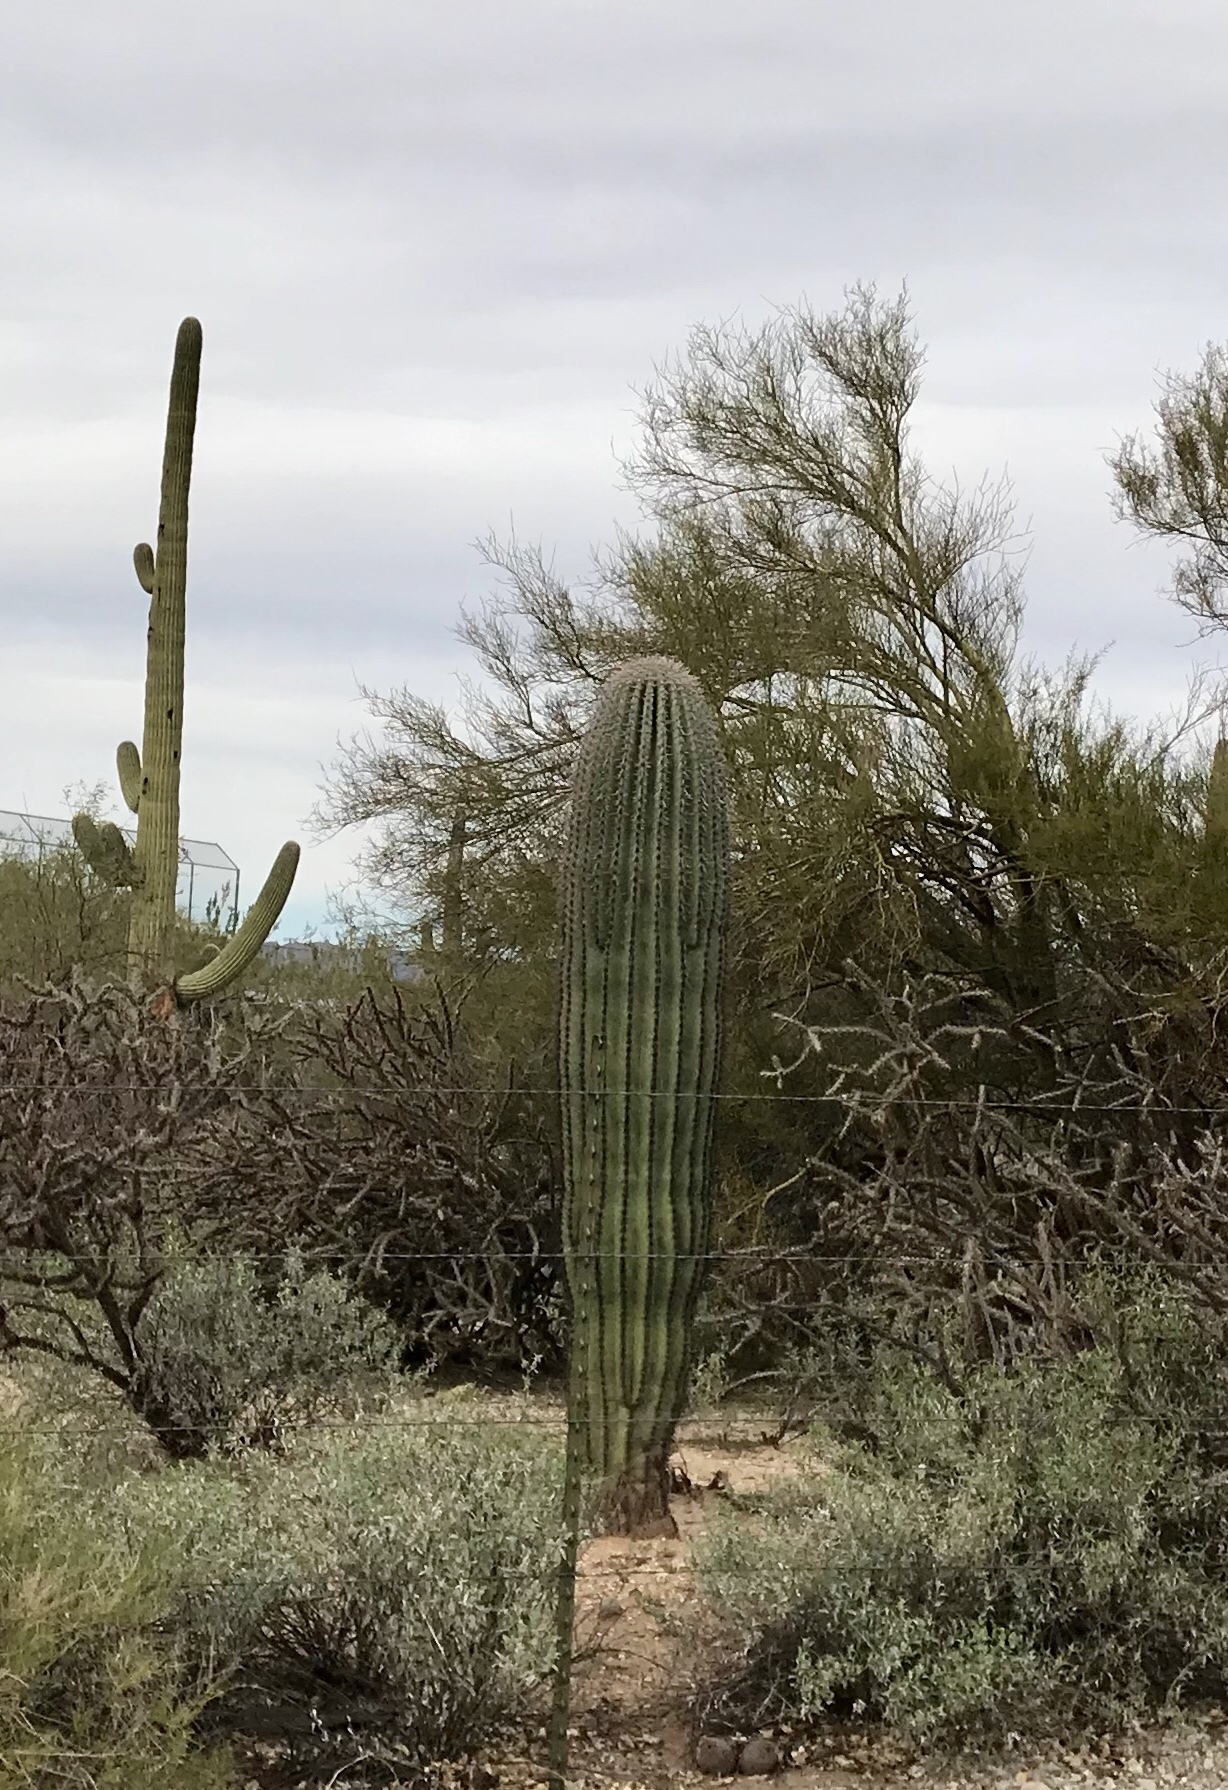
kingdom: Plantae
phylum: Tracheophyta
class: Magnoliopsida
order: Caryophyllales
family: Cactaceae
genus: Carnegiea
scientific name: Carnegiea gigantea
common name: Saguaro
